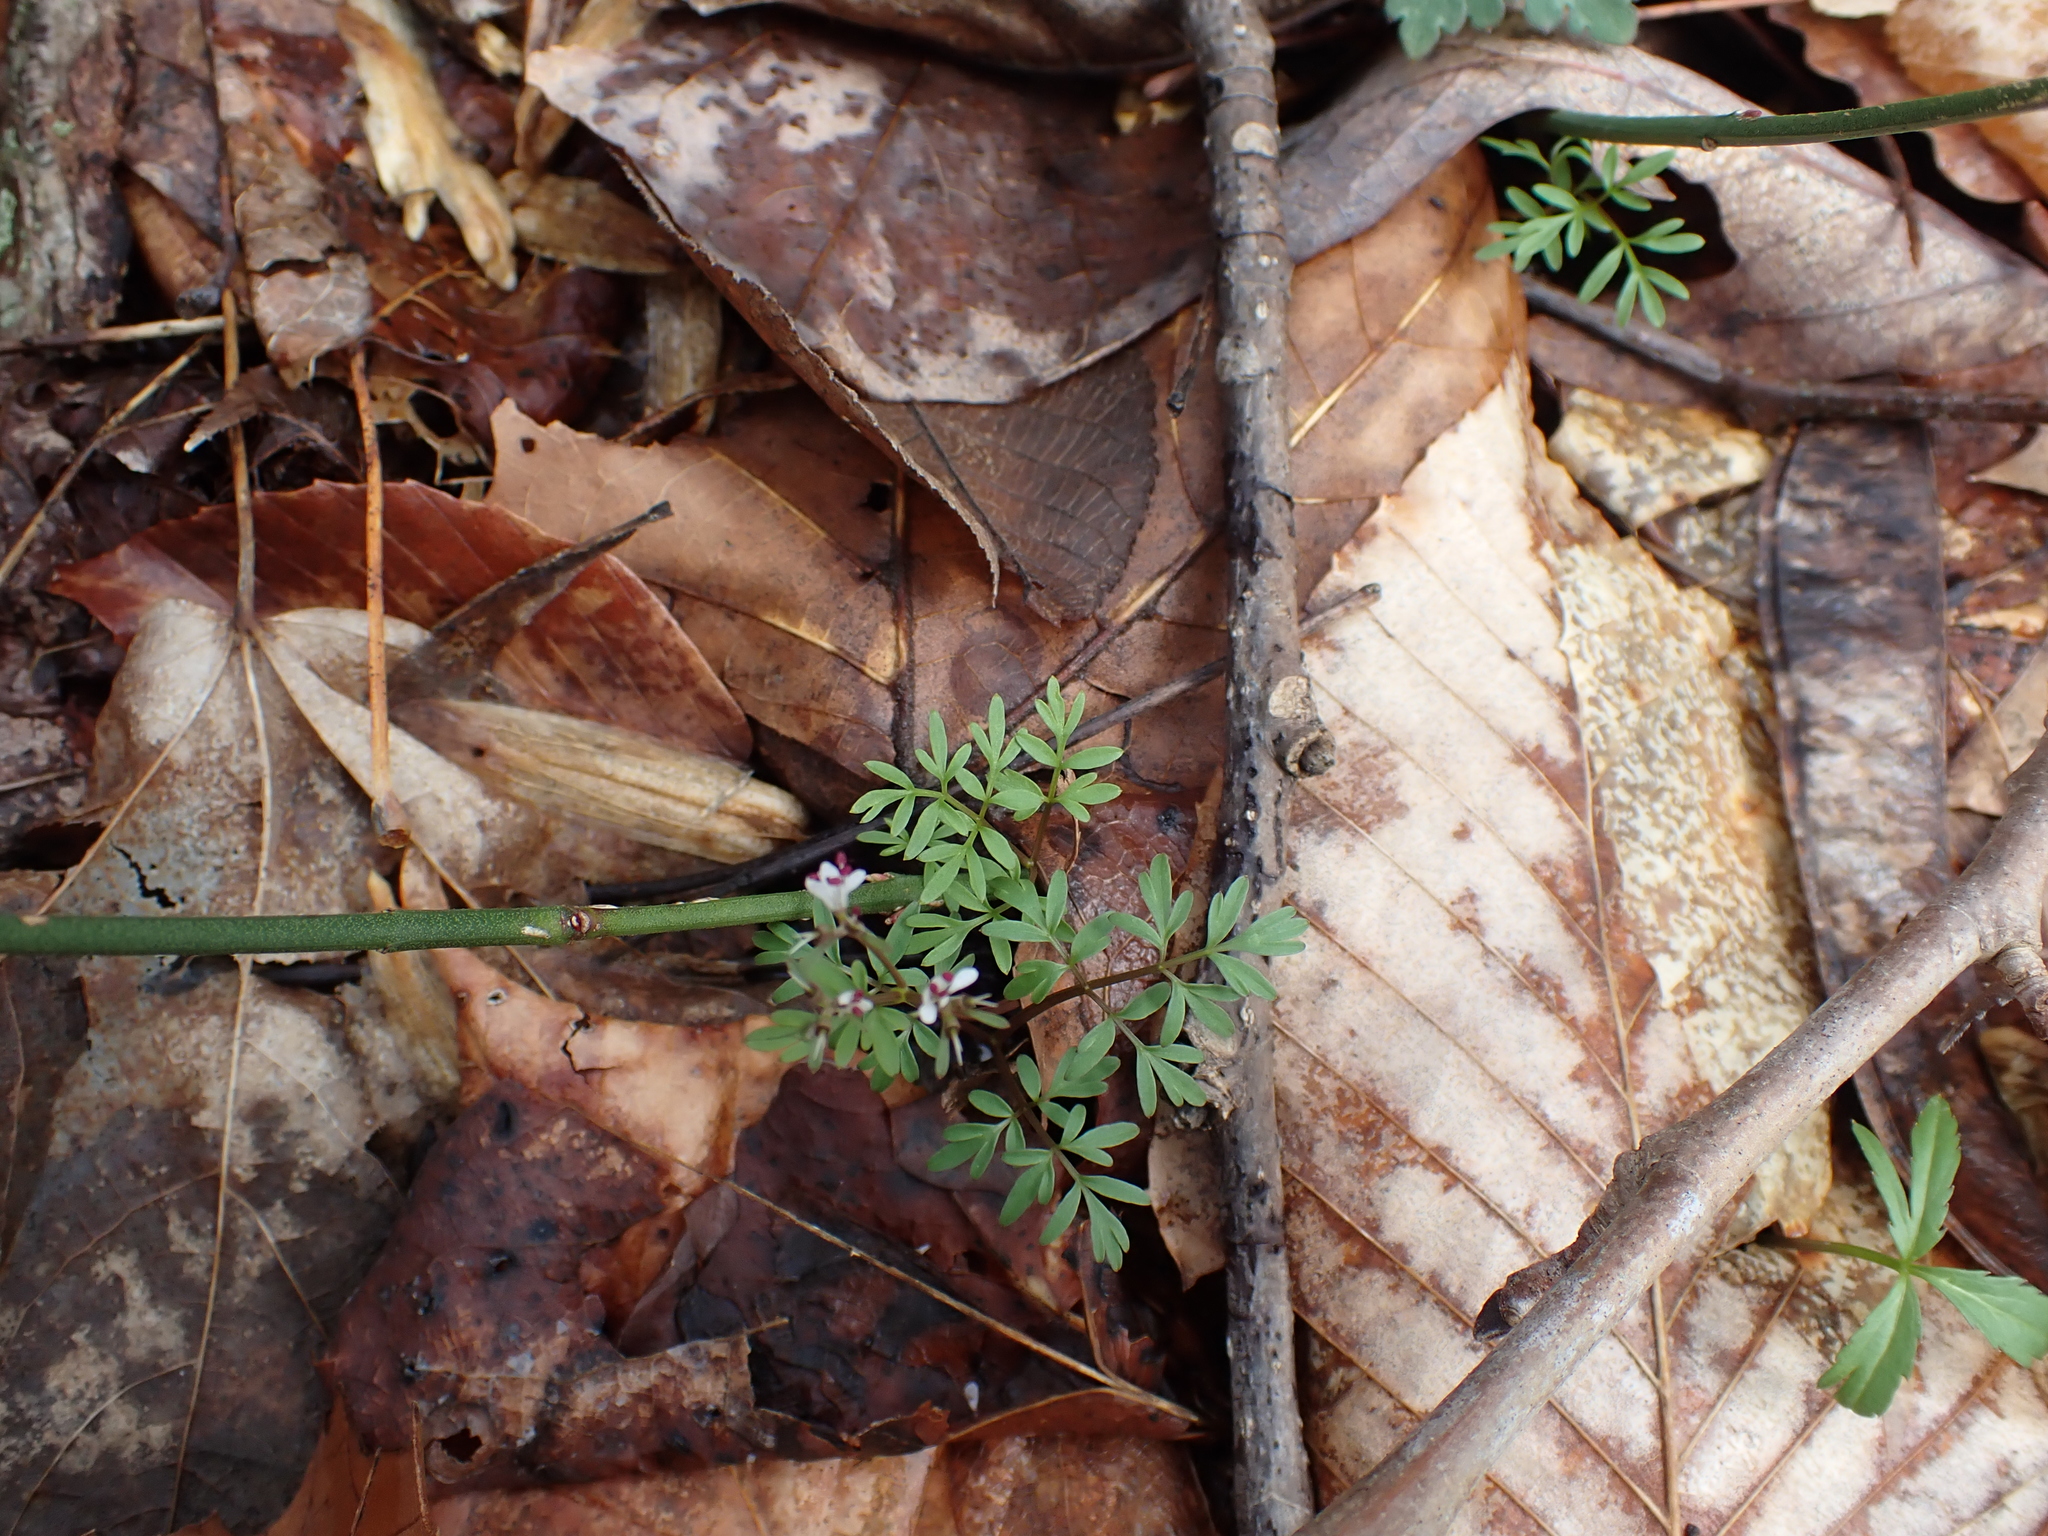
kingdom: Plantae
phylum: Tracheophyta
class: Magnoliopsida
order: Apiales
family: Apiaceae
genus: Erigenia
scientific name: Erigenia bulbosa
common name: Pepper-and-salt
